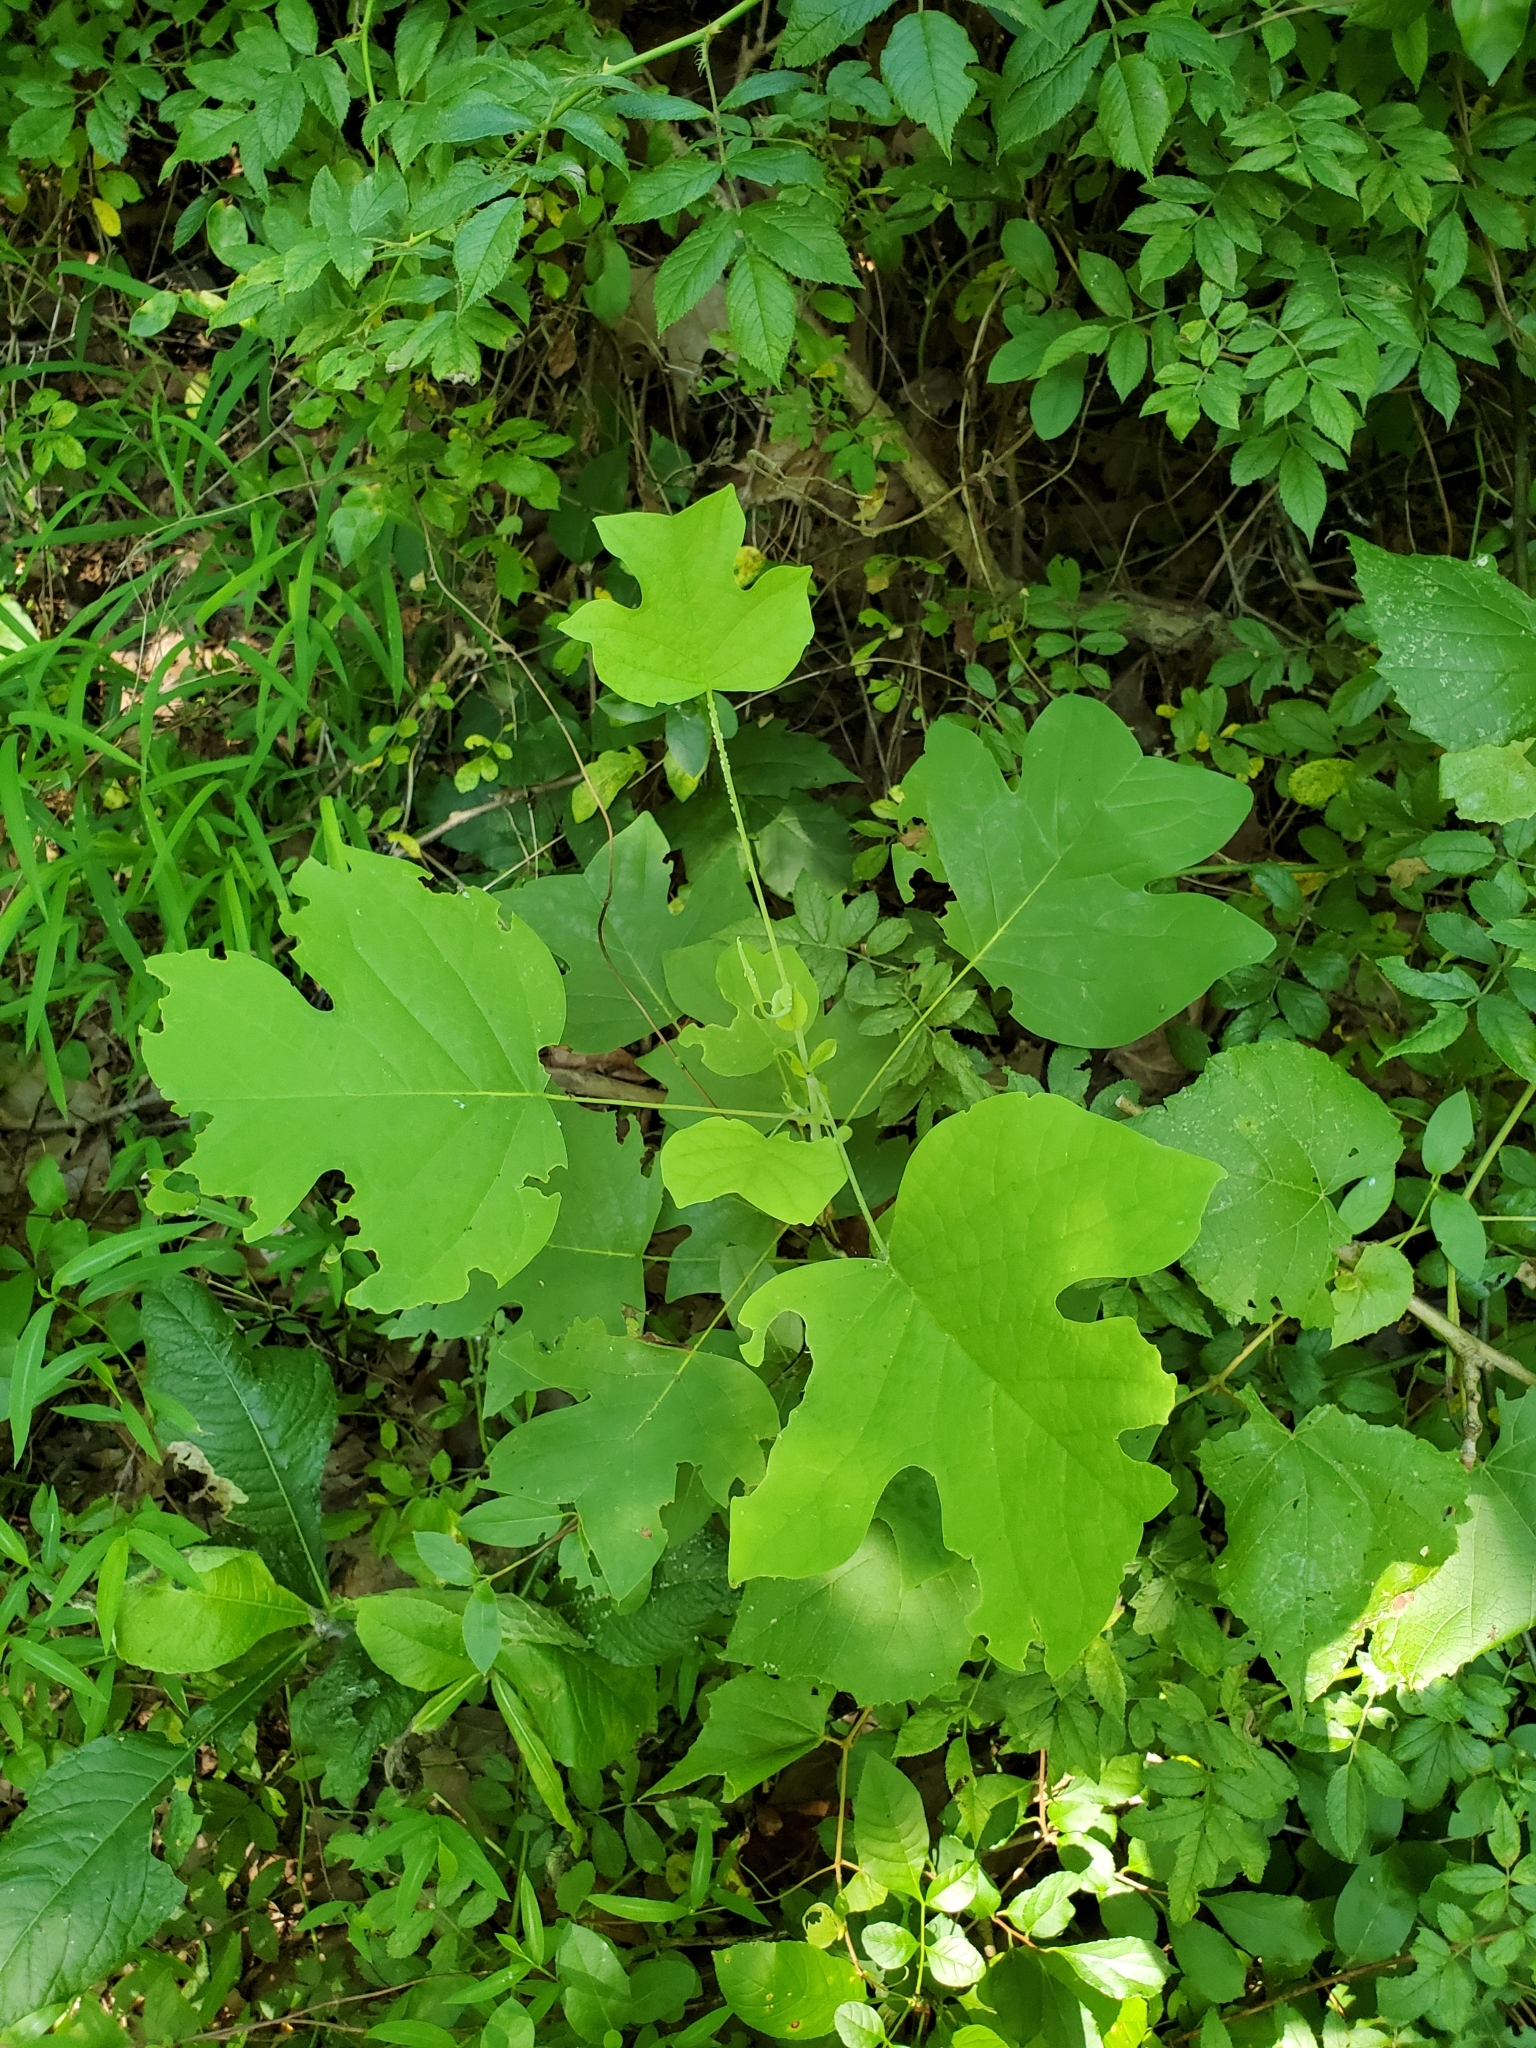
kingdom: Plantae
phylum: Tracheophyta
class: Magnoliopsida
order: Magnoliales
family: Magnoliaceae
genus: Liriodendron
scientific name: Liriodendron tulipifera
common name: Tulip tree
